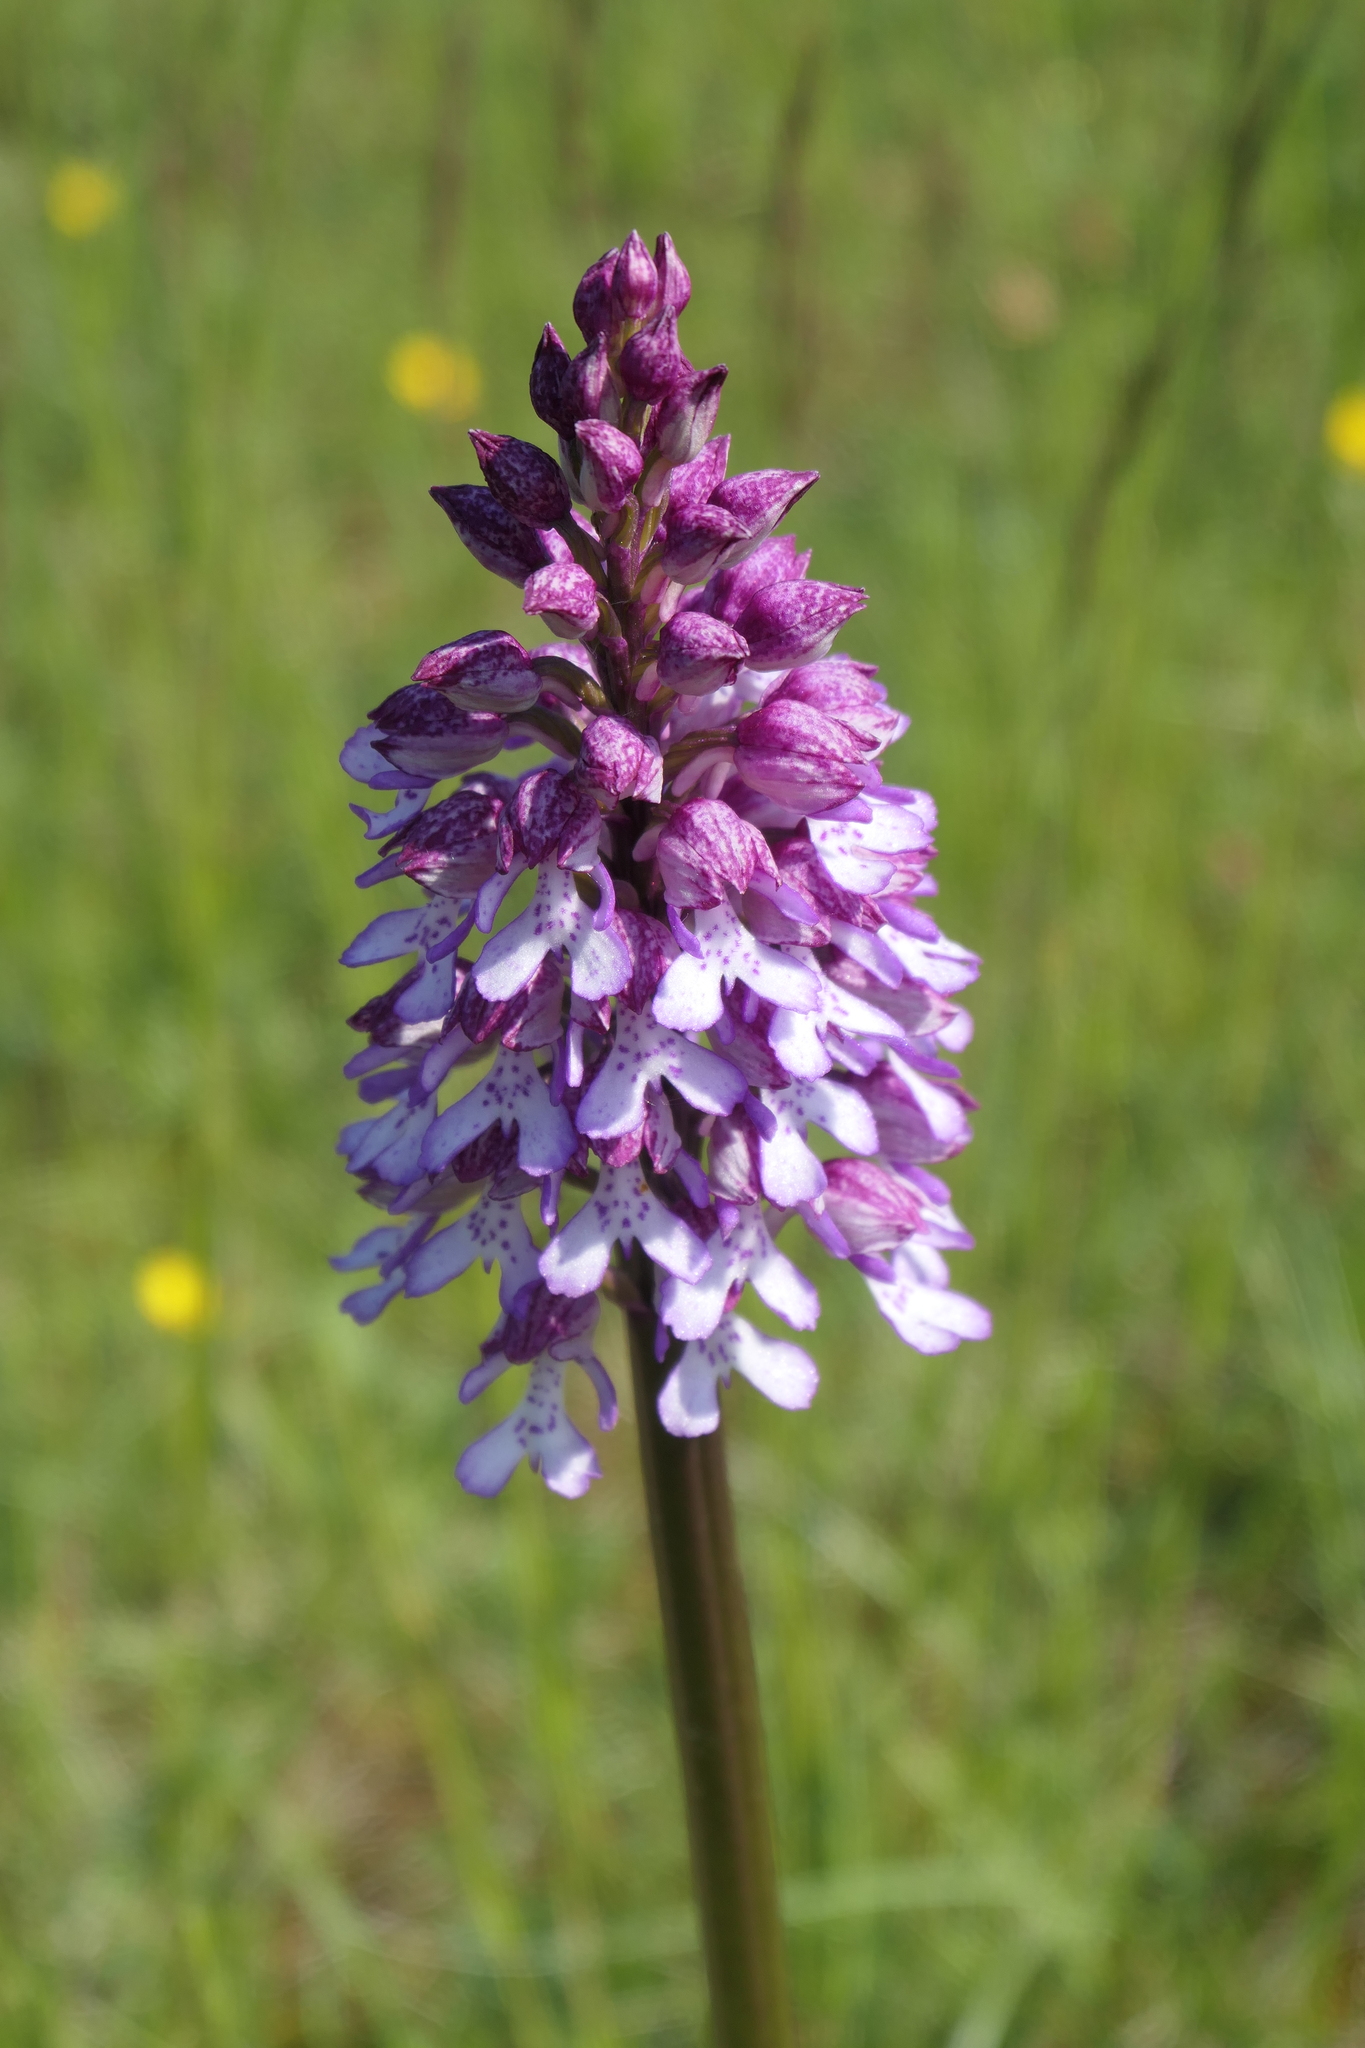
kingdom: Plantae
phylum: Tracheophyta
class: Liliopsida
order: Asparagales
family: Orchidaceae
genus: Orchis
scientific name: Orchis purpurea
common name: Lady orchid
